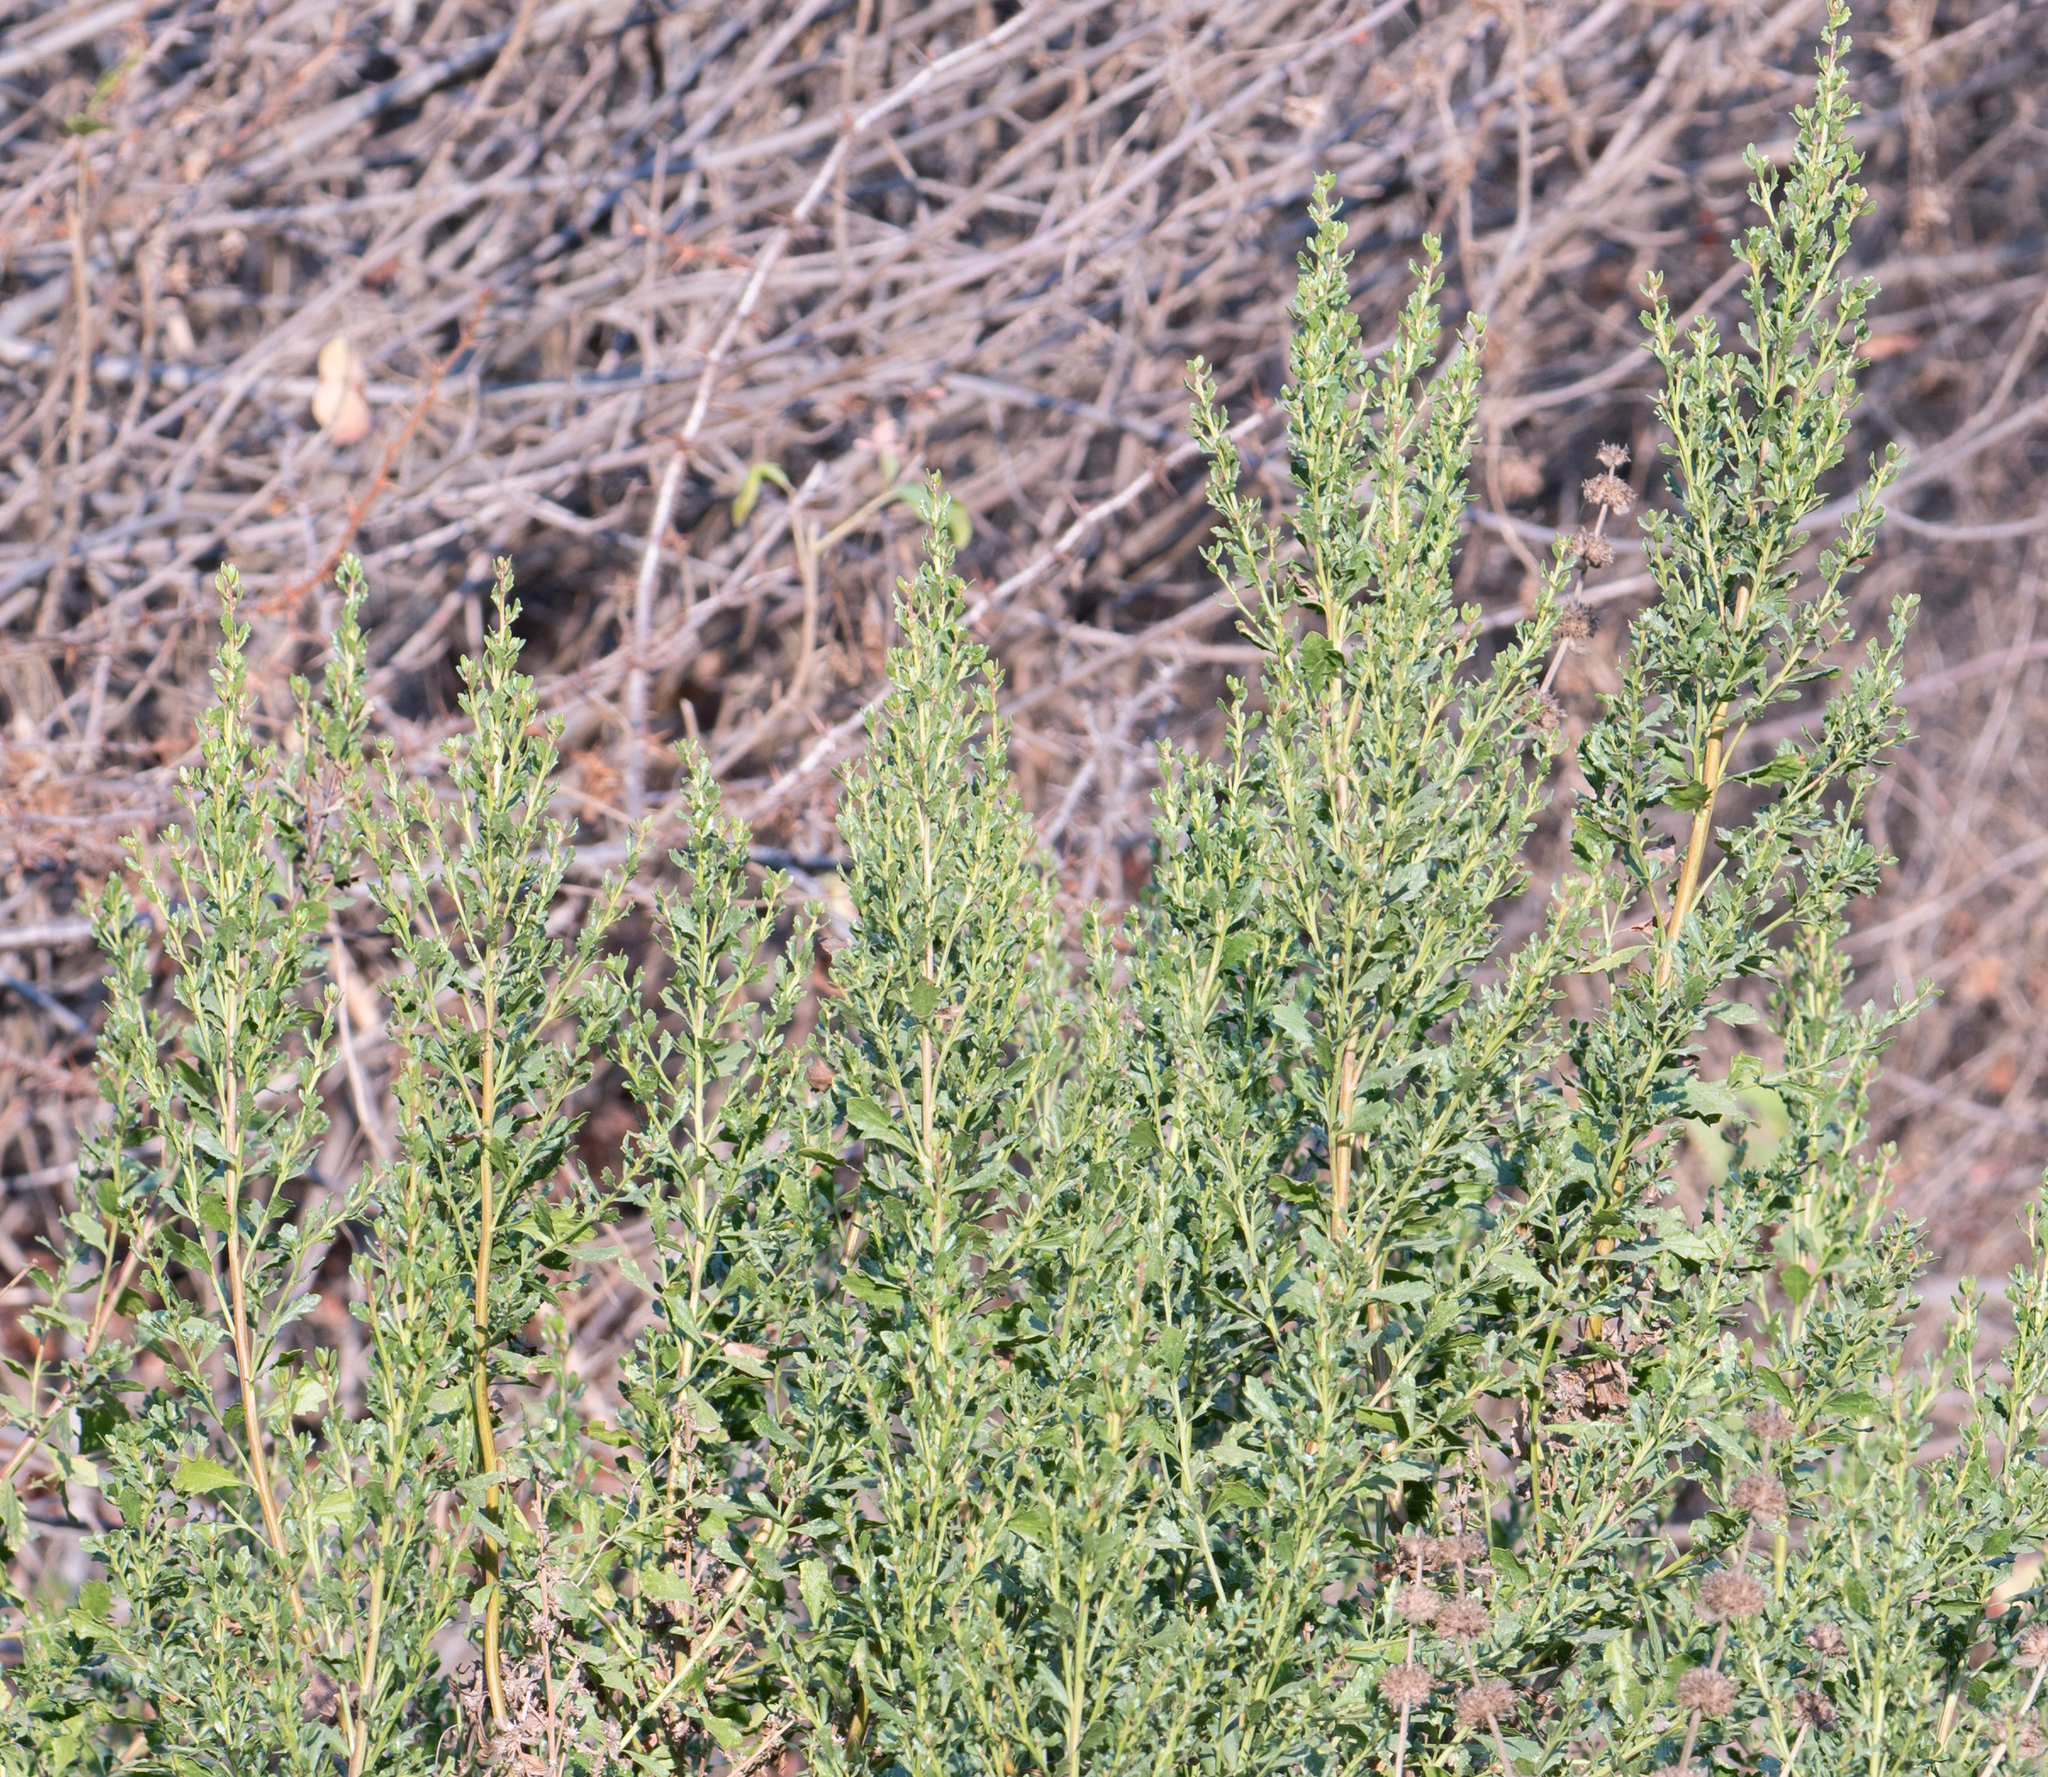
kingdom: Plantae
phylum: Tracheophyta
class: Magnoliopsida
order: Asterales
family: Asteraceae
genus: Baccharis
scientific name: Baccharis pilularis
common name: Coyotebrush
